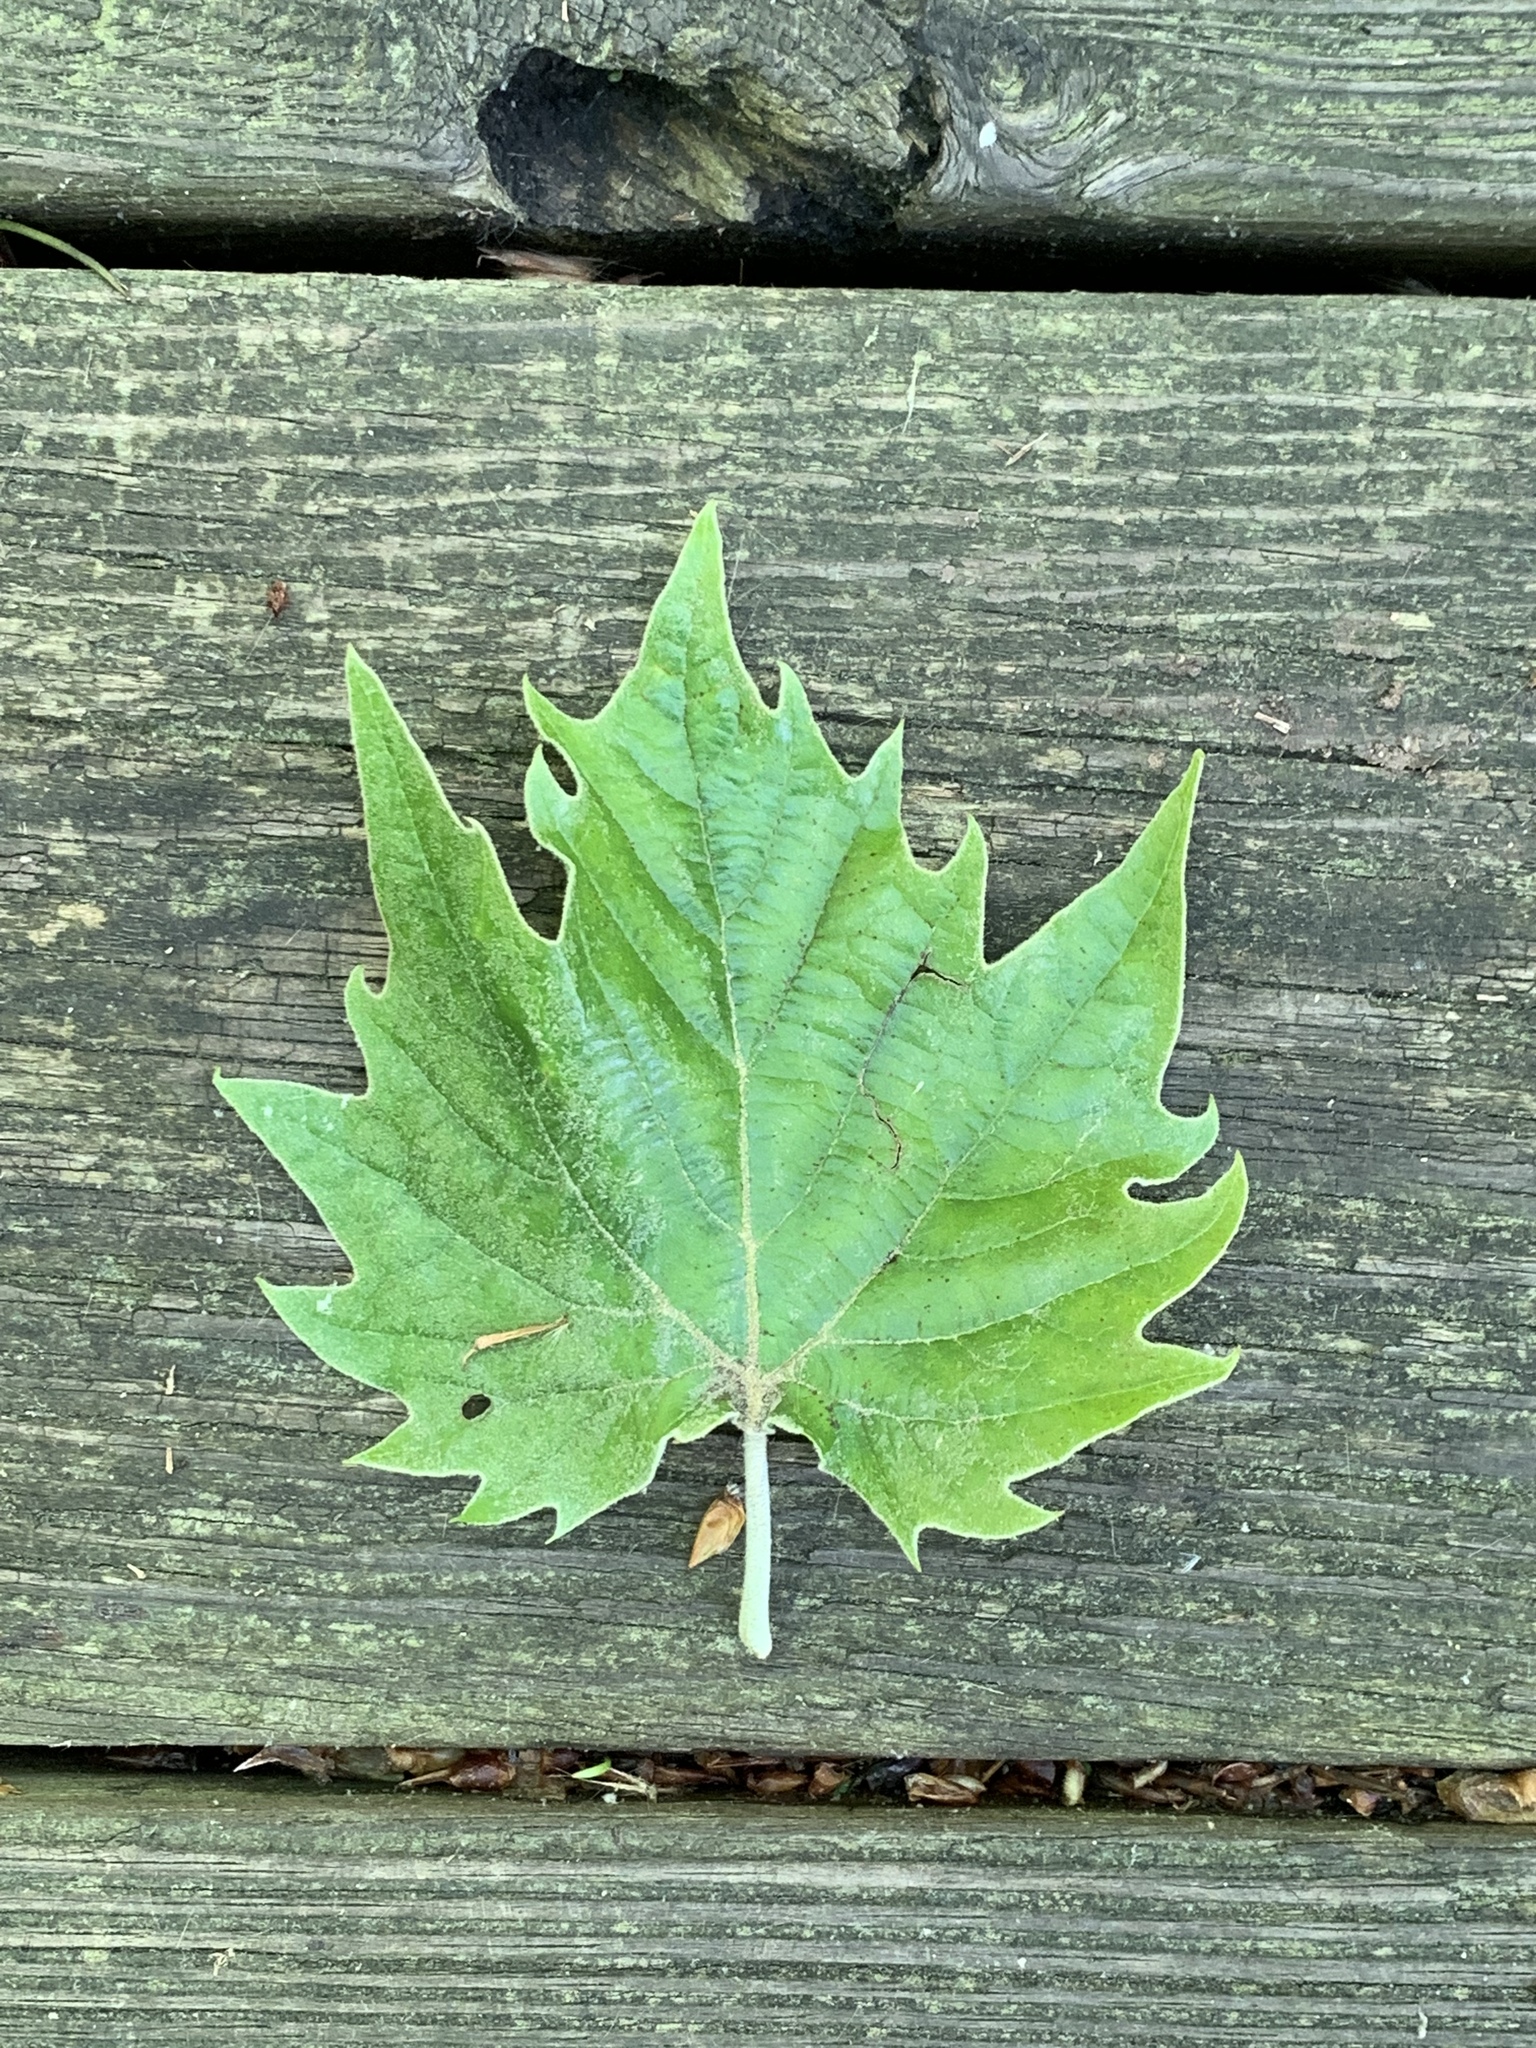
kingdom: Plantae
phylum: Tracheophyta
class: Magnoliopsida
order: Proteales
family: Platanaceae
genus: Platanus
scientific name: Platanus occidentalis
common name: American sycamore
